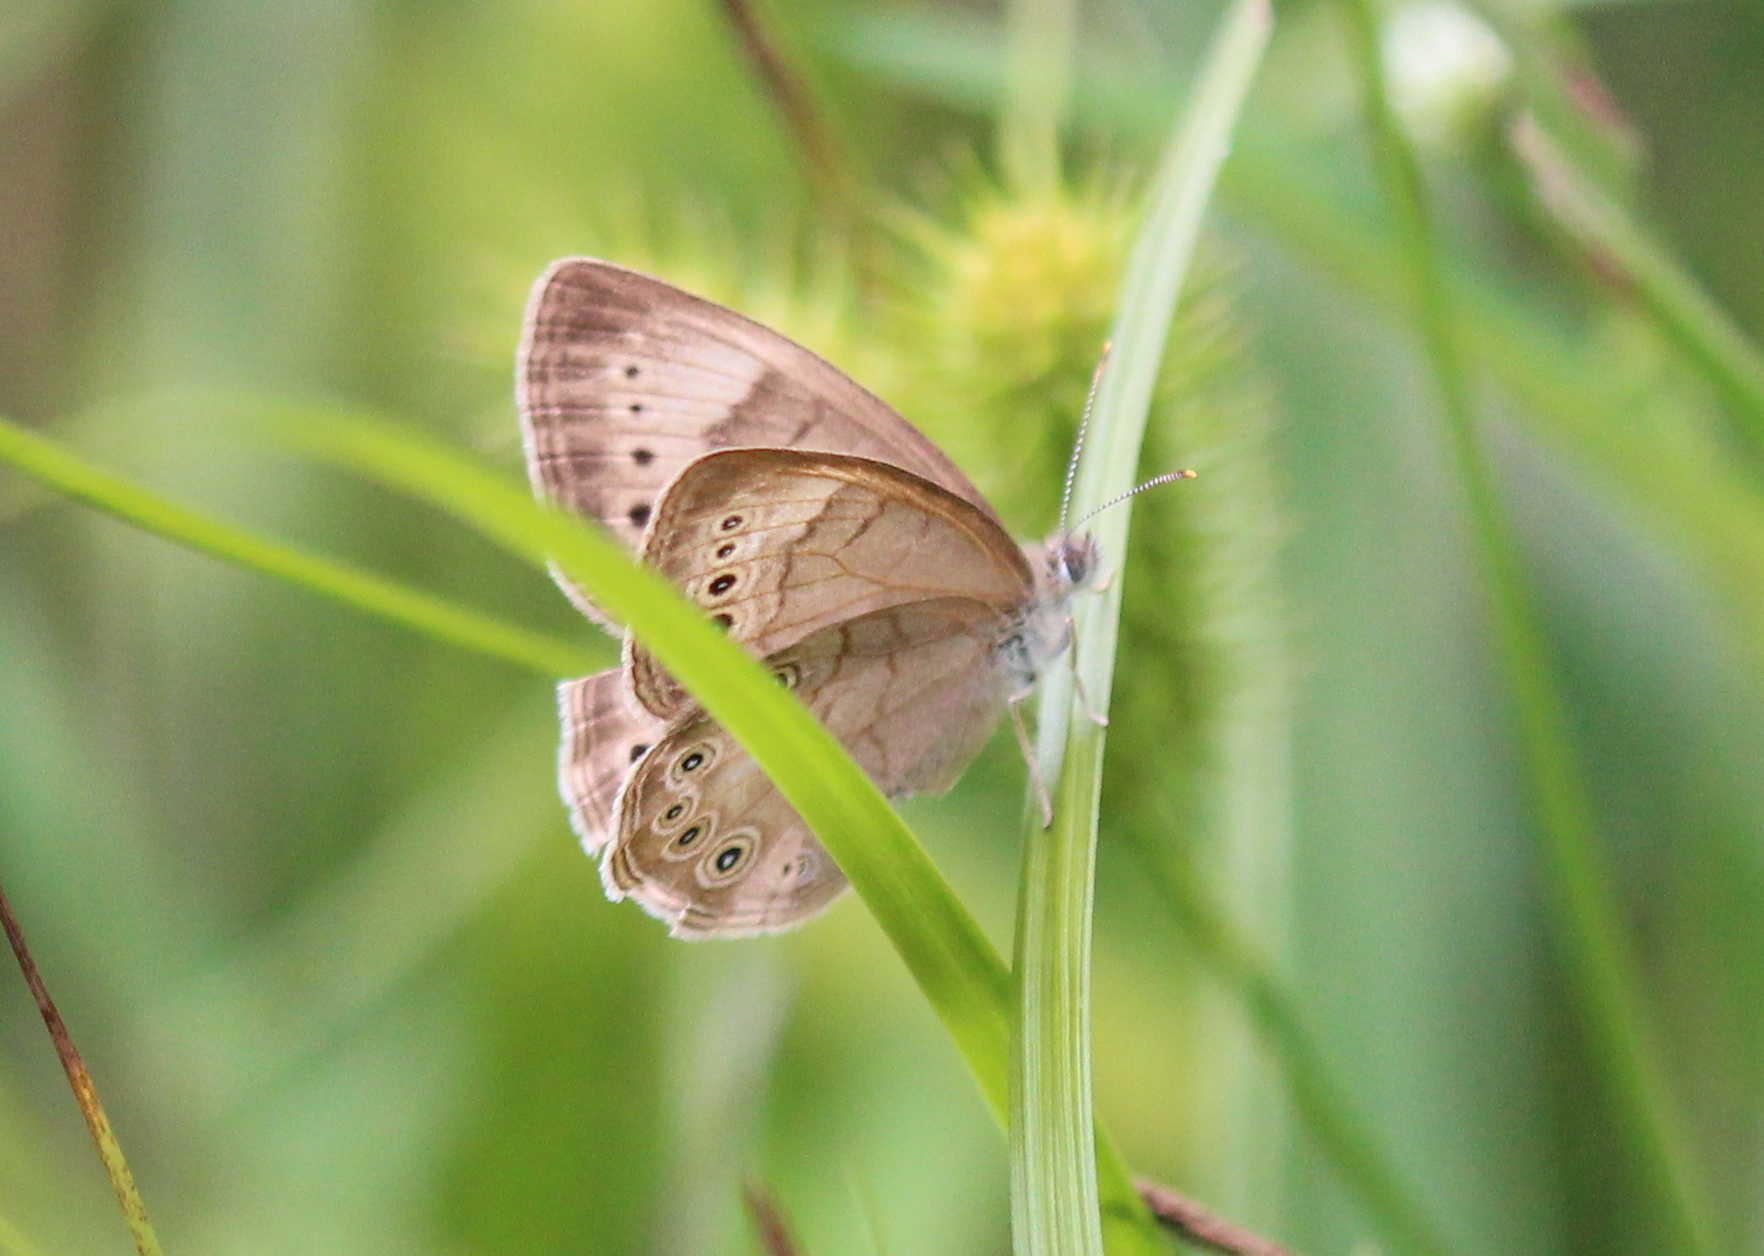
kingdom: Animalia
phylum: Arthropoda
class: Insecta
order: Lepidoptera
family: Nymphalidae
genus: Lethe
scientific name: Lethe eurydice
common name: Eyed brown
